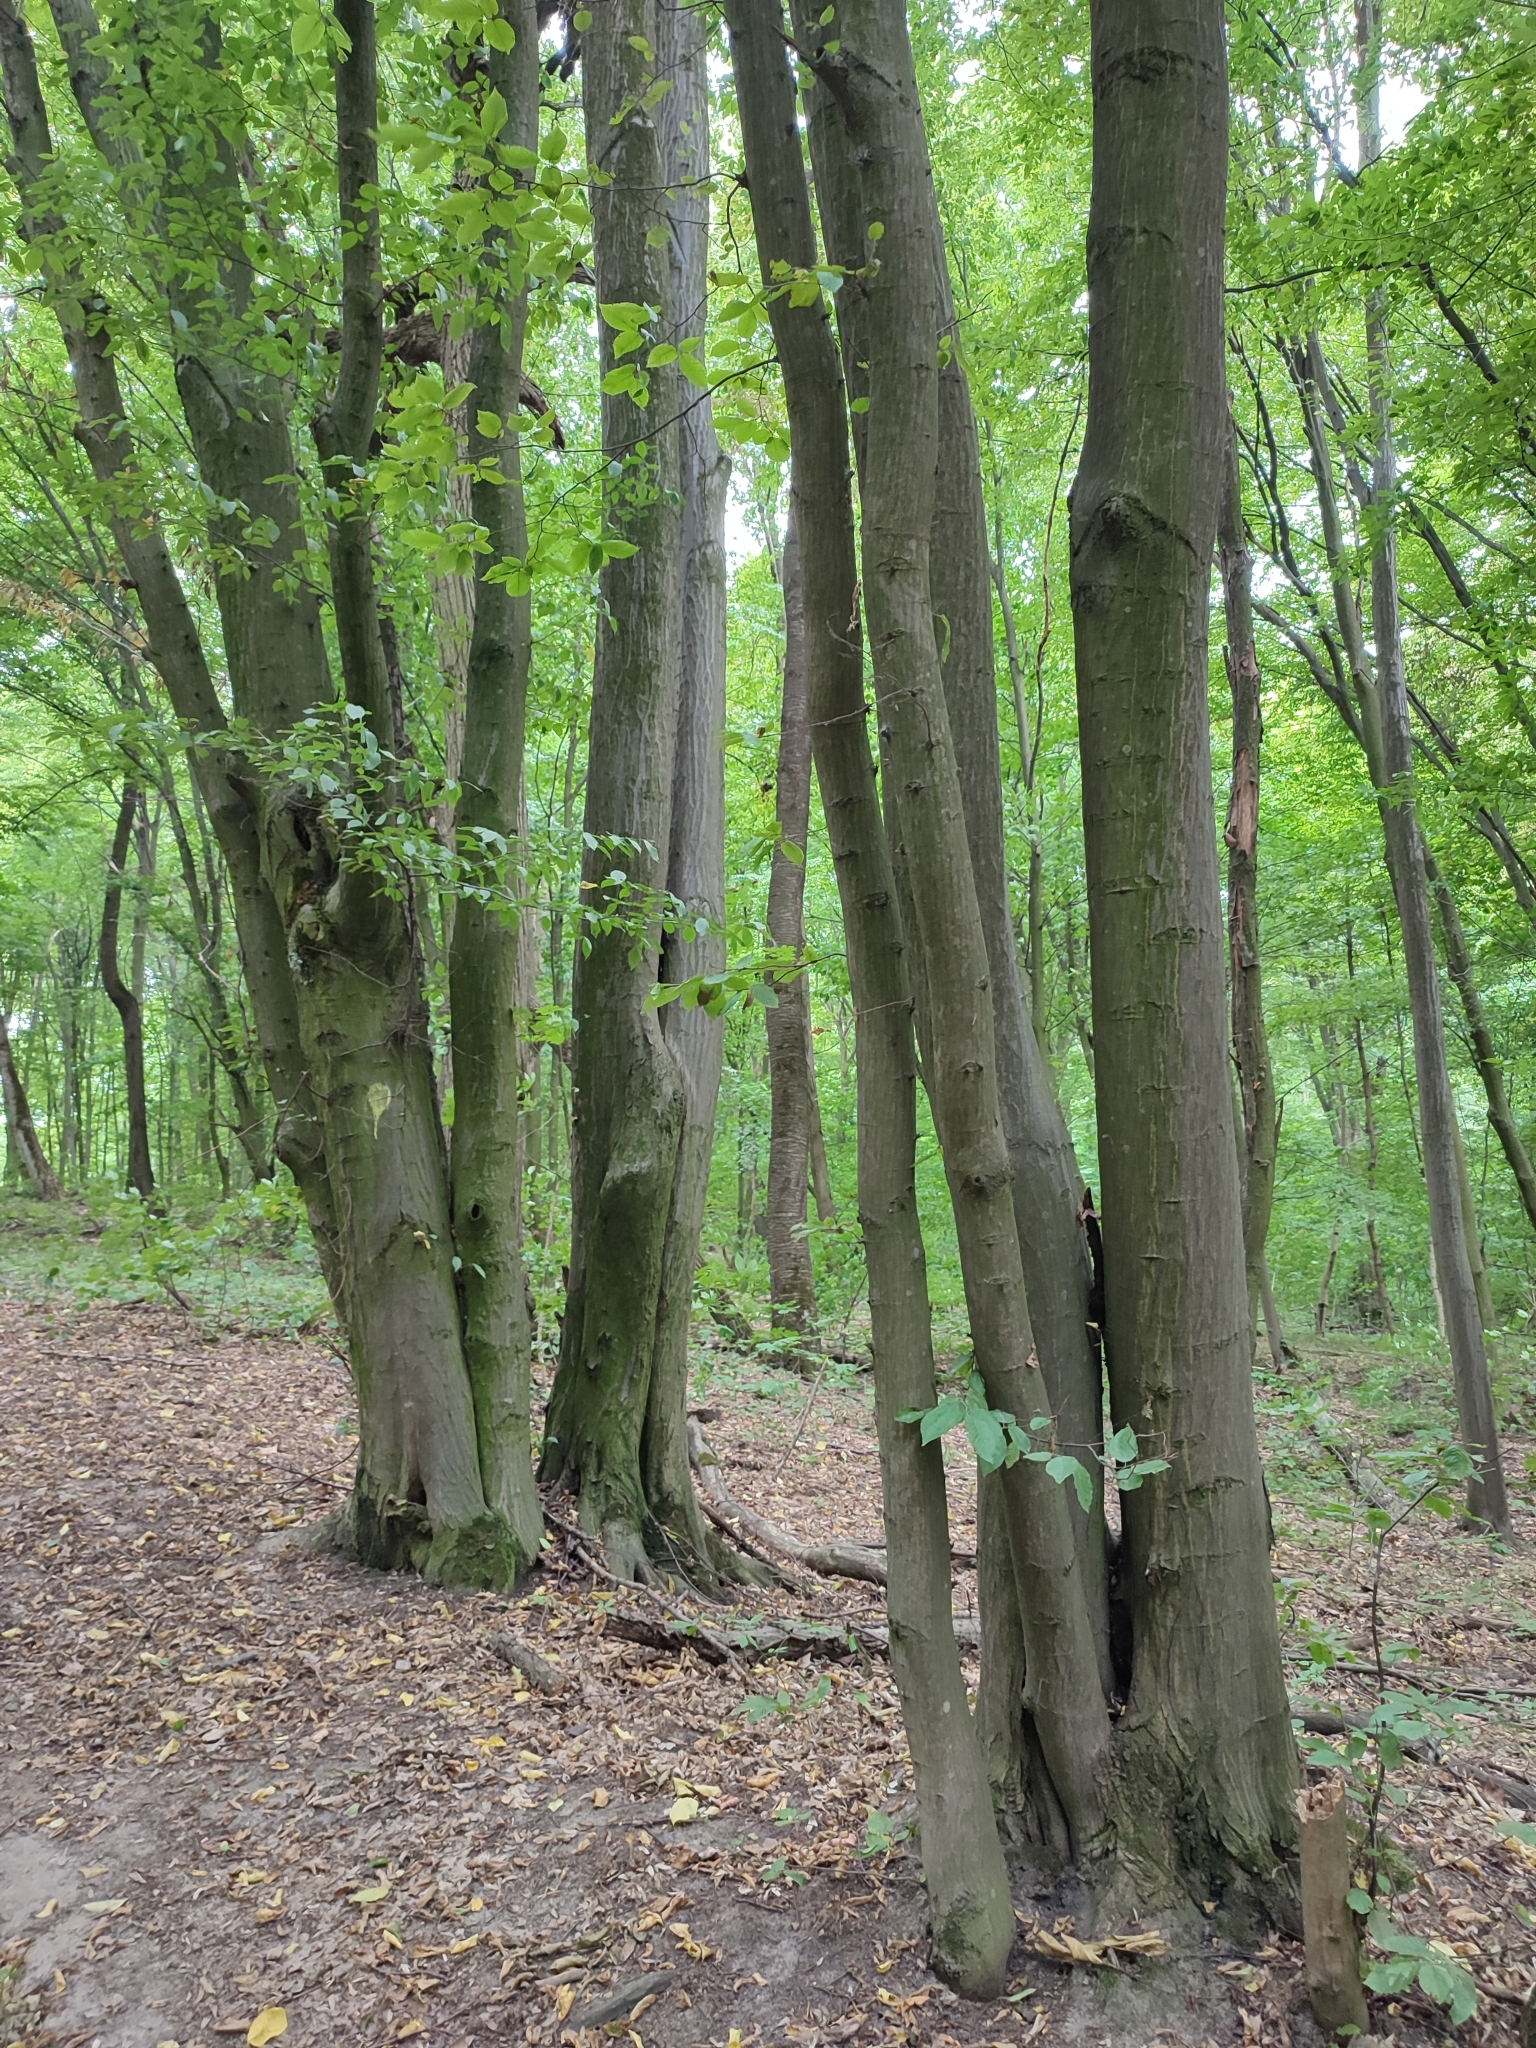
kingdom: Plantae
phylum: Tracheophyta
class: Magnoliopsida
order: Fagales
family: Betulaceae
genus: Carpinus
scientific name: Carpinus betulus
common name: Hornbeam
